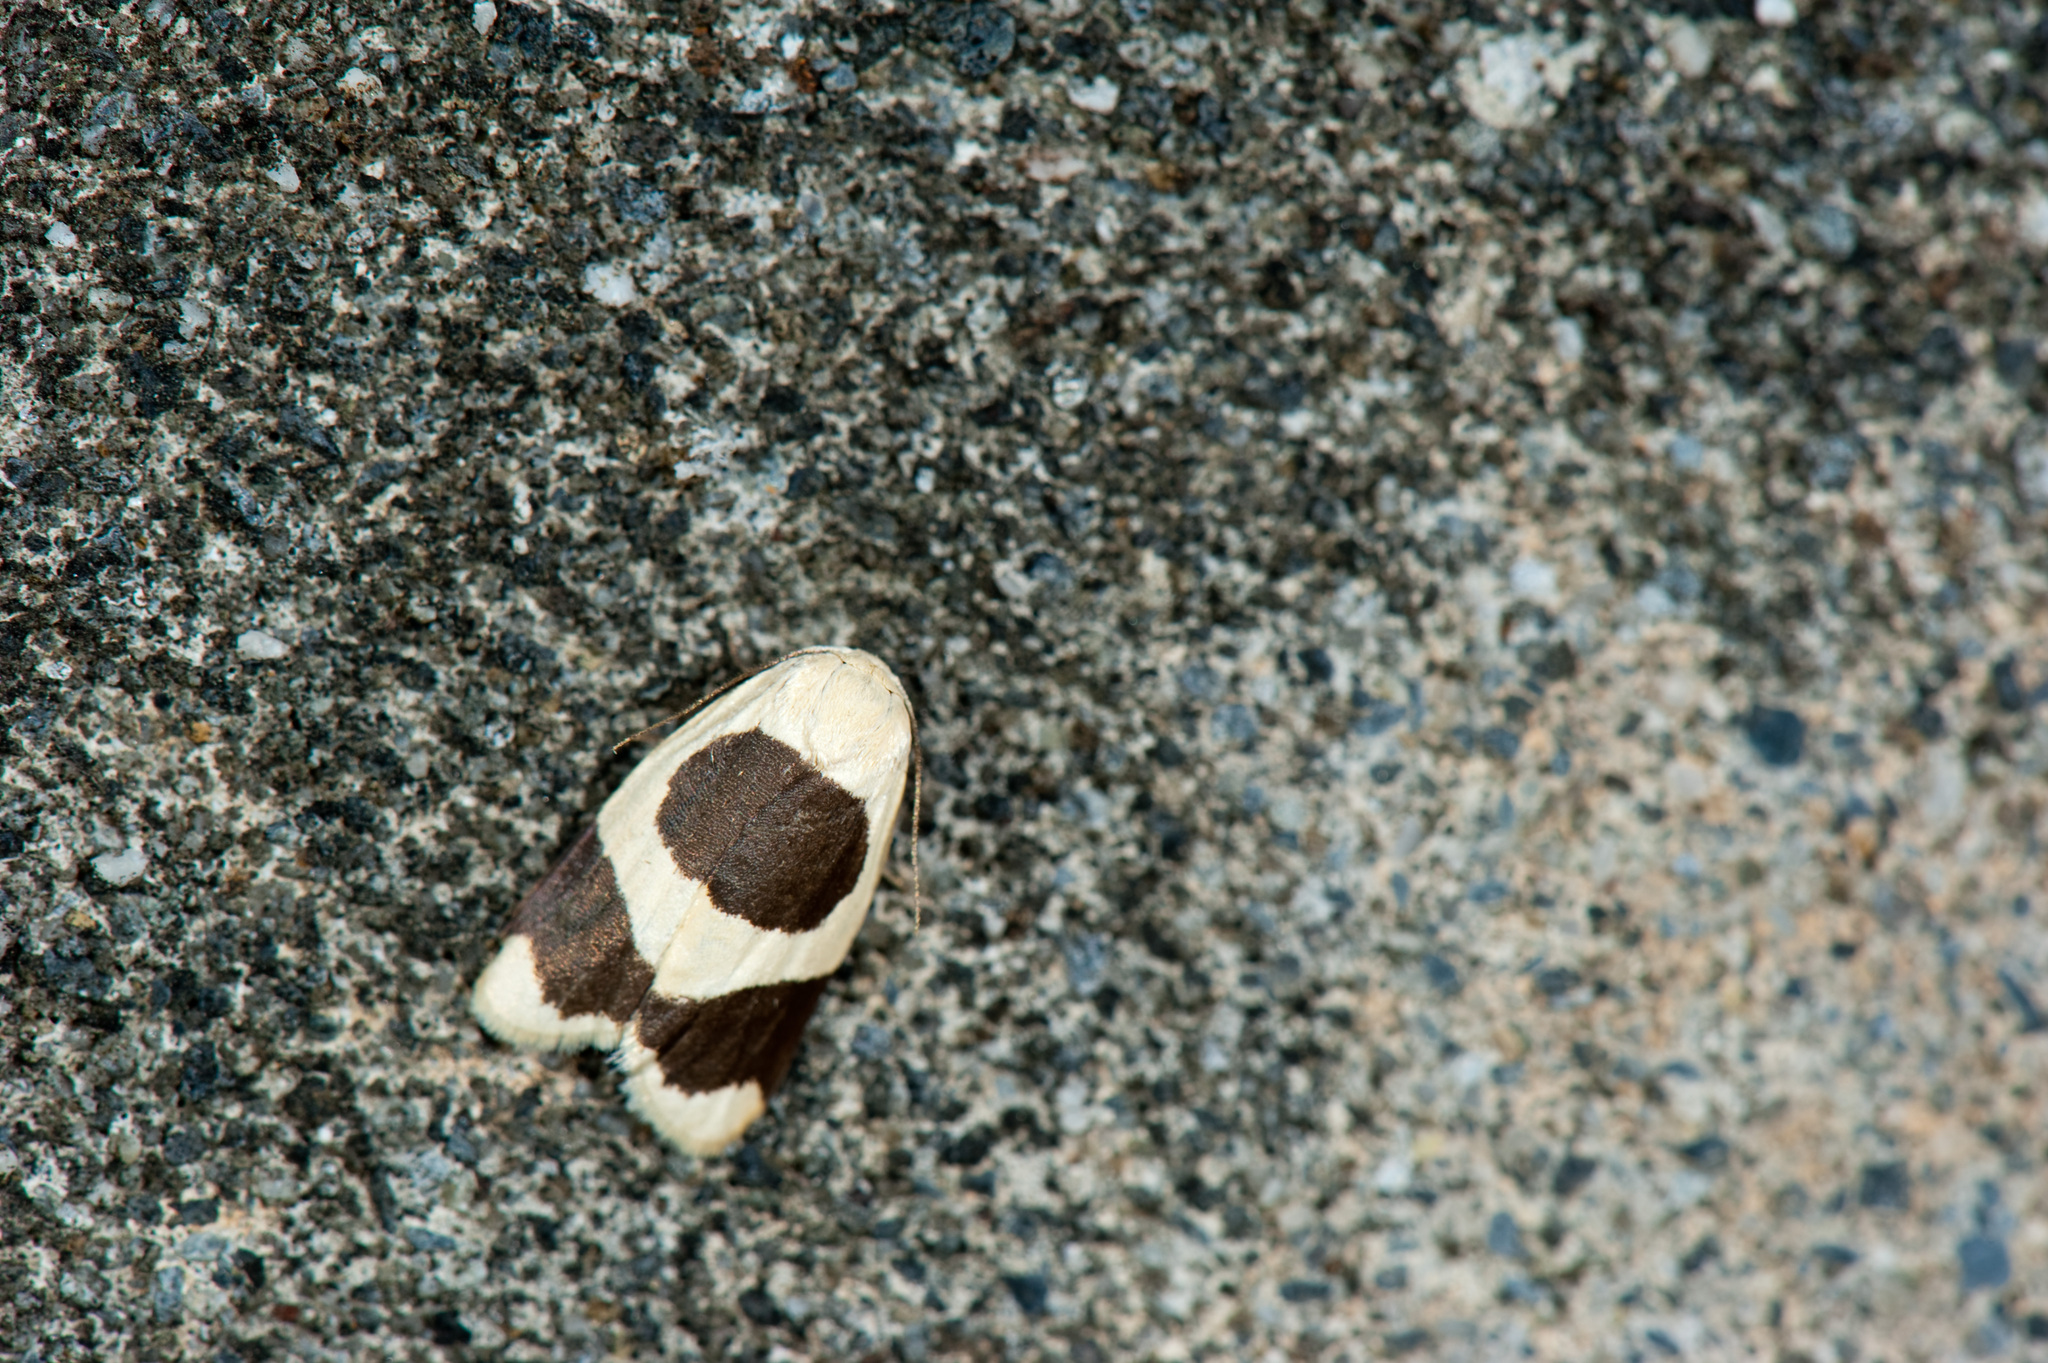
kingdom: Animalia
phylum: Arthropoda
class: Insecta
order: Lepidoptera
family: Erebidae
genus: Garudinia
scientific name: Garudinia taioana
